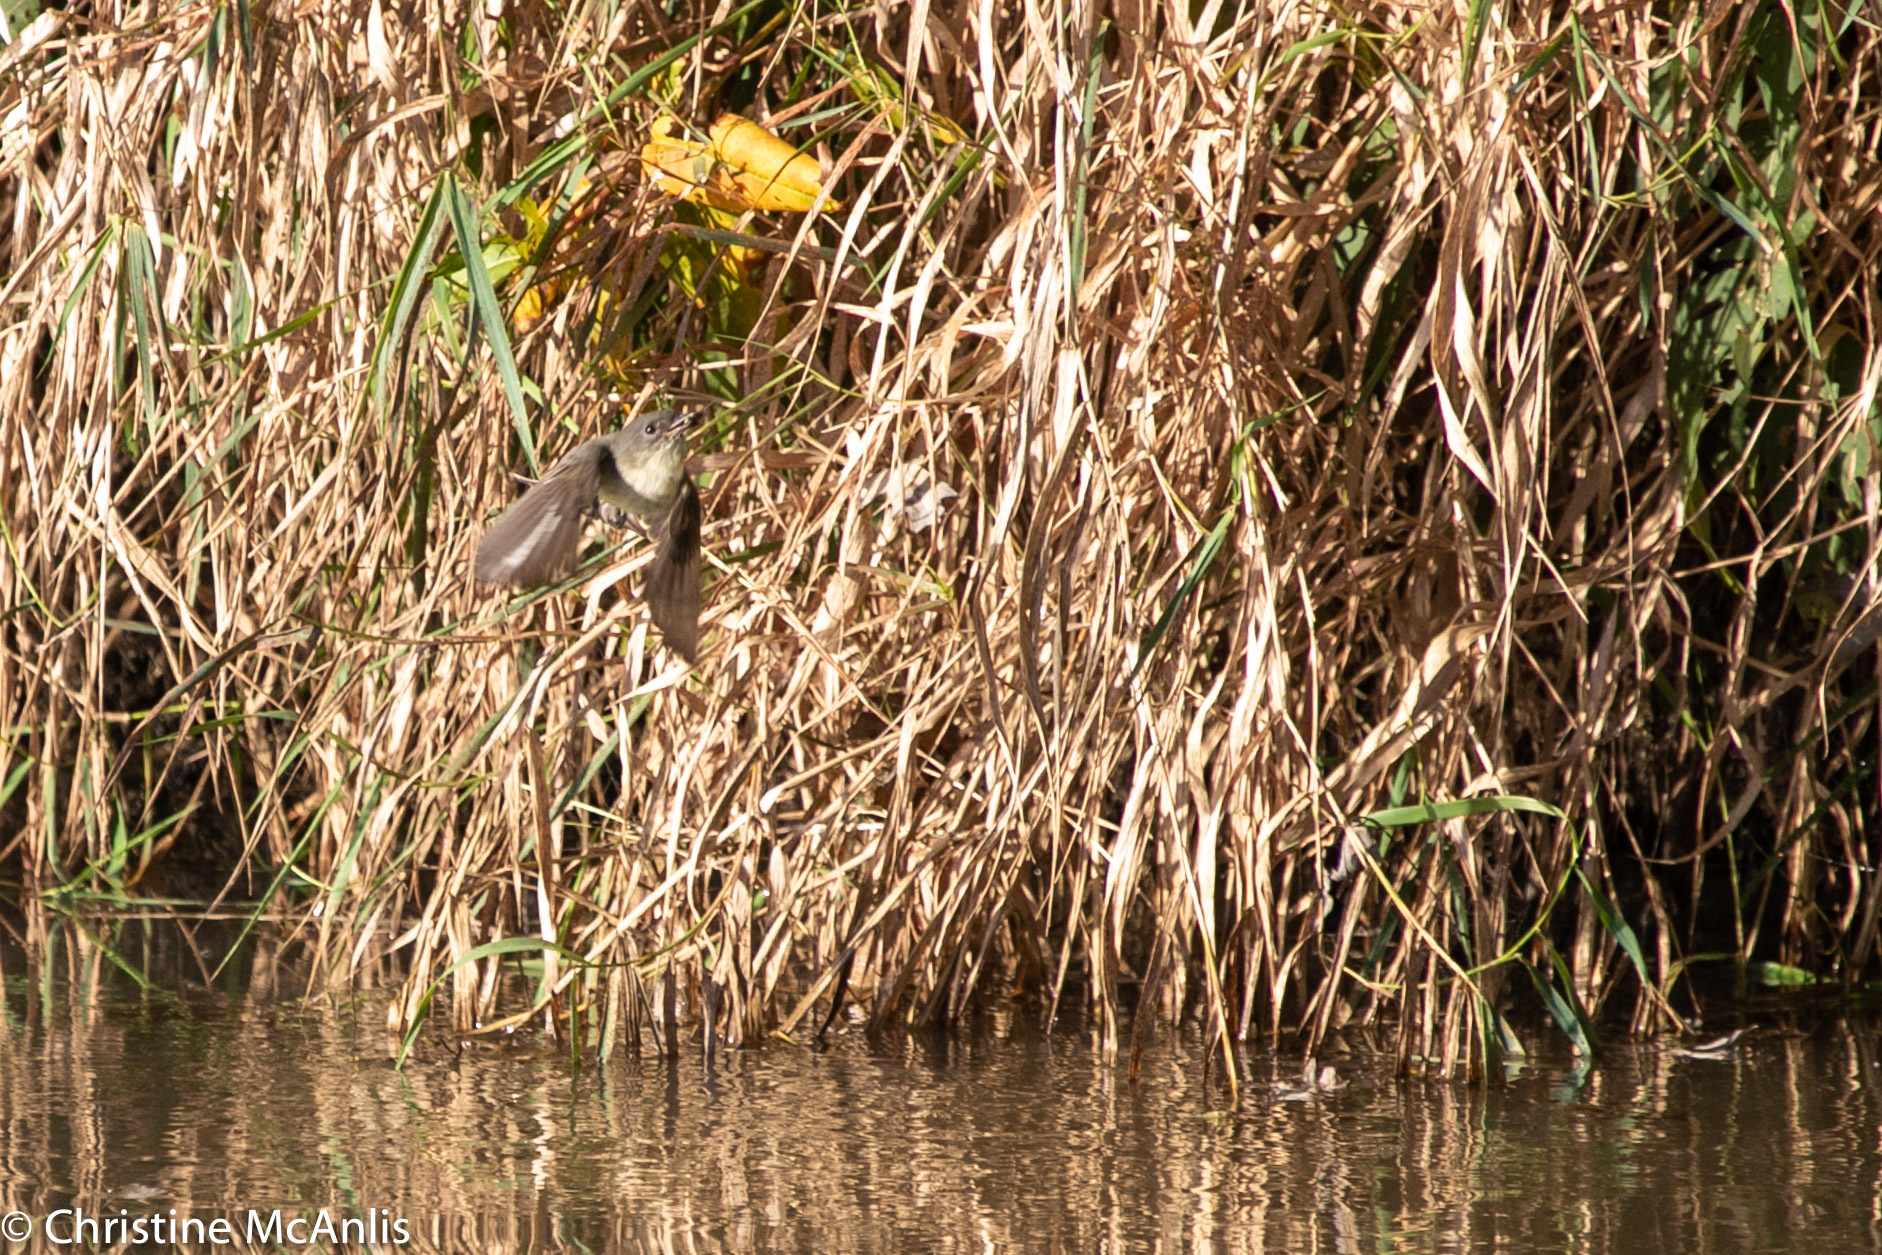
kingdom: Animalia
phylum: Chordata
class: Aves
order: Passeriformes
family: Tyrannidae
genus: Sayornis
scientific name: Sayornis phoebe
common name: Eastern phoebe
